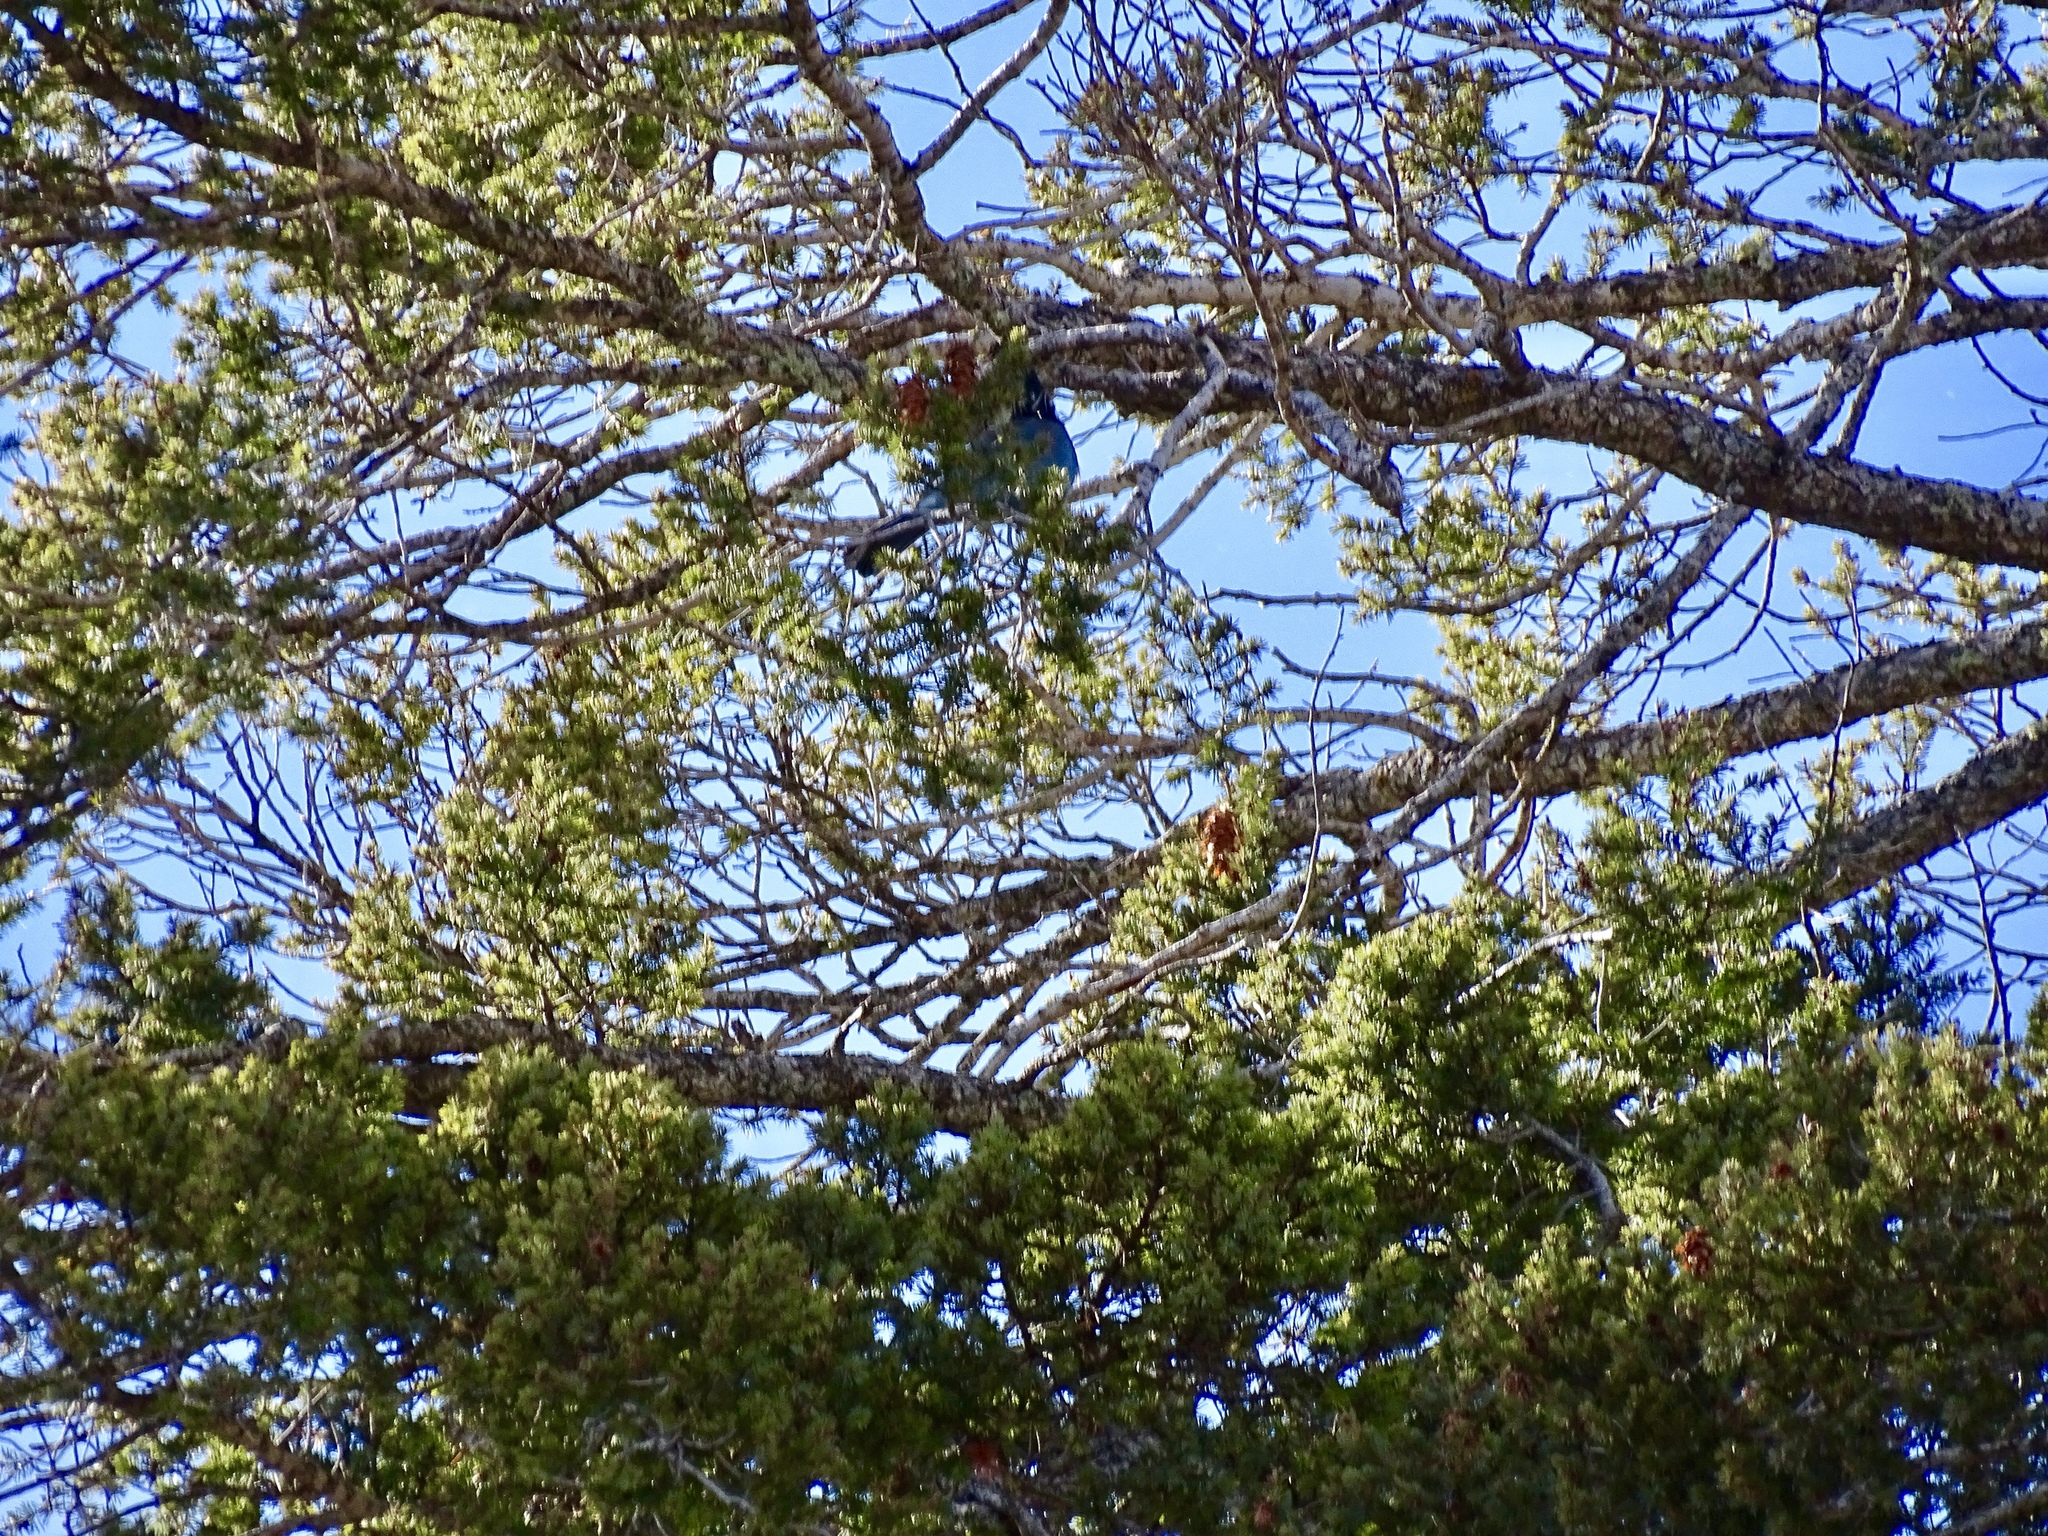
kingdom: Plantae
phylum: Tracheophyta
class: Pinopsida
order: Pinales
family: Pinaceae
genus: Pseudotsuga
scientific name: Pseudotsuga menziesii
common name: Douglas fir
